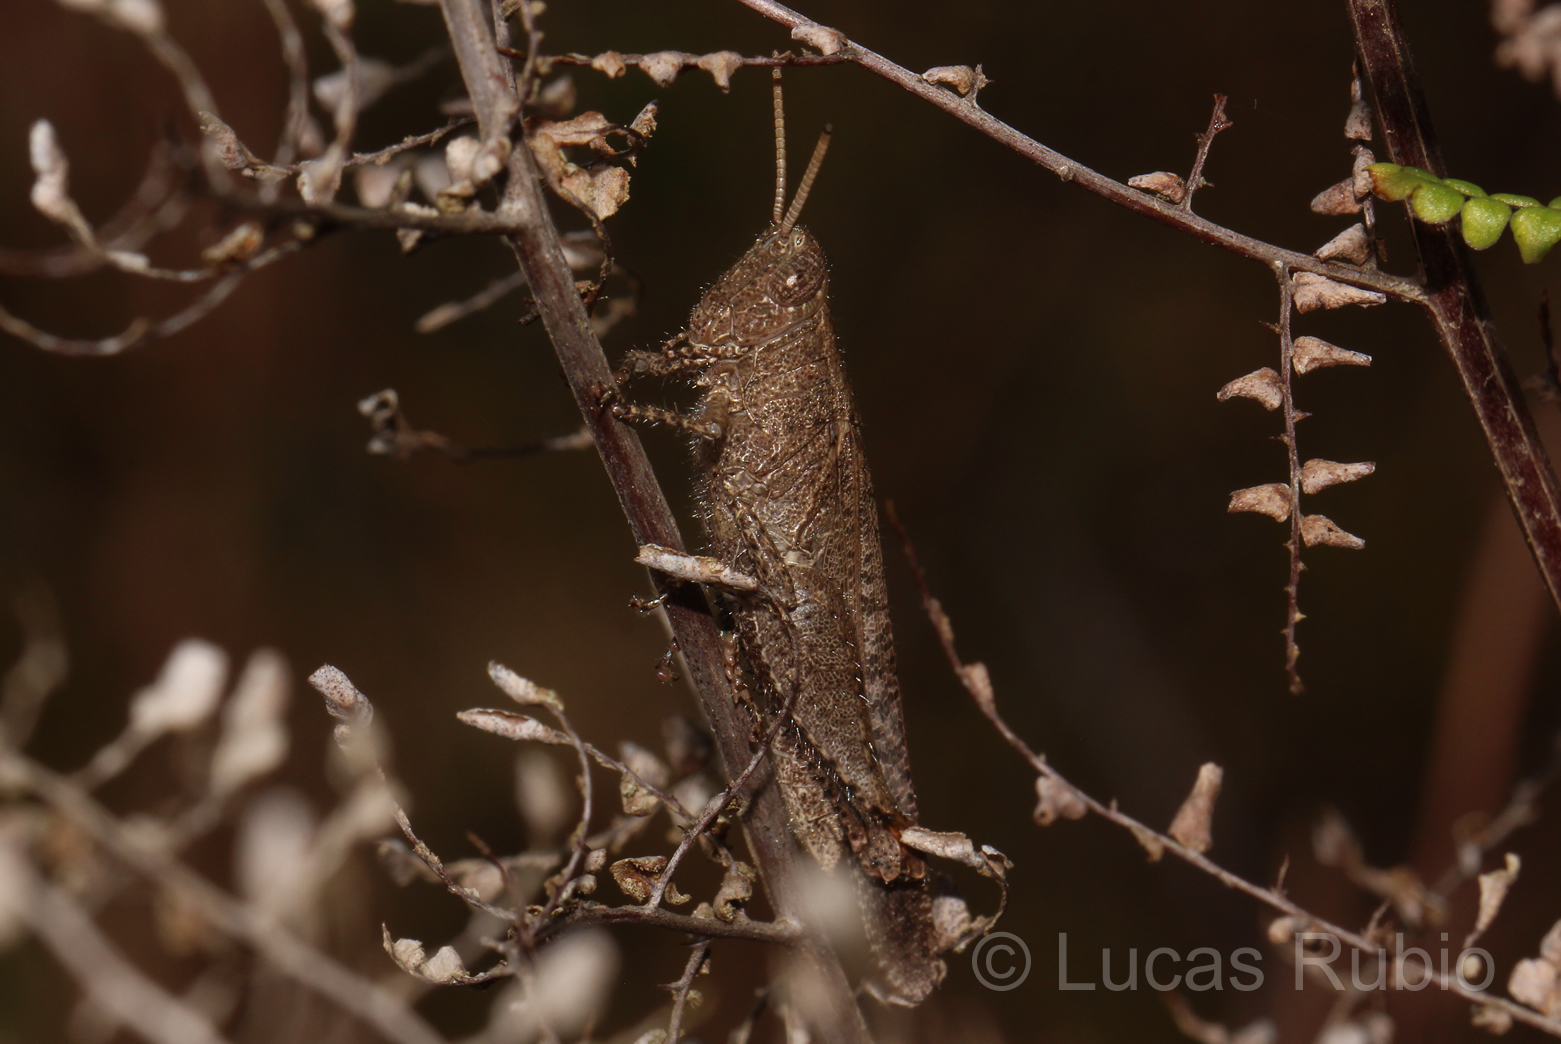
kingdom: Animalia
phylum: Arthropoda
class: Insecta
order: Orthoptera
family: Acrididae
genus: Abracris
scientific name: Abracris dilecta
